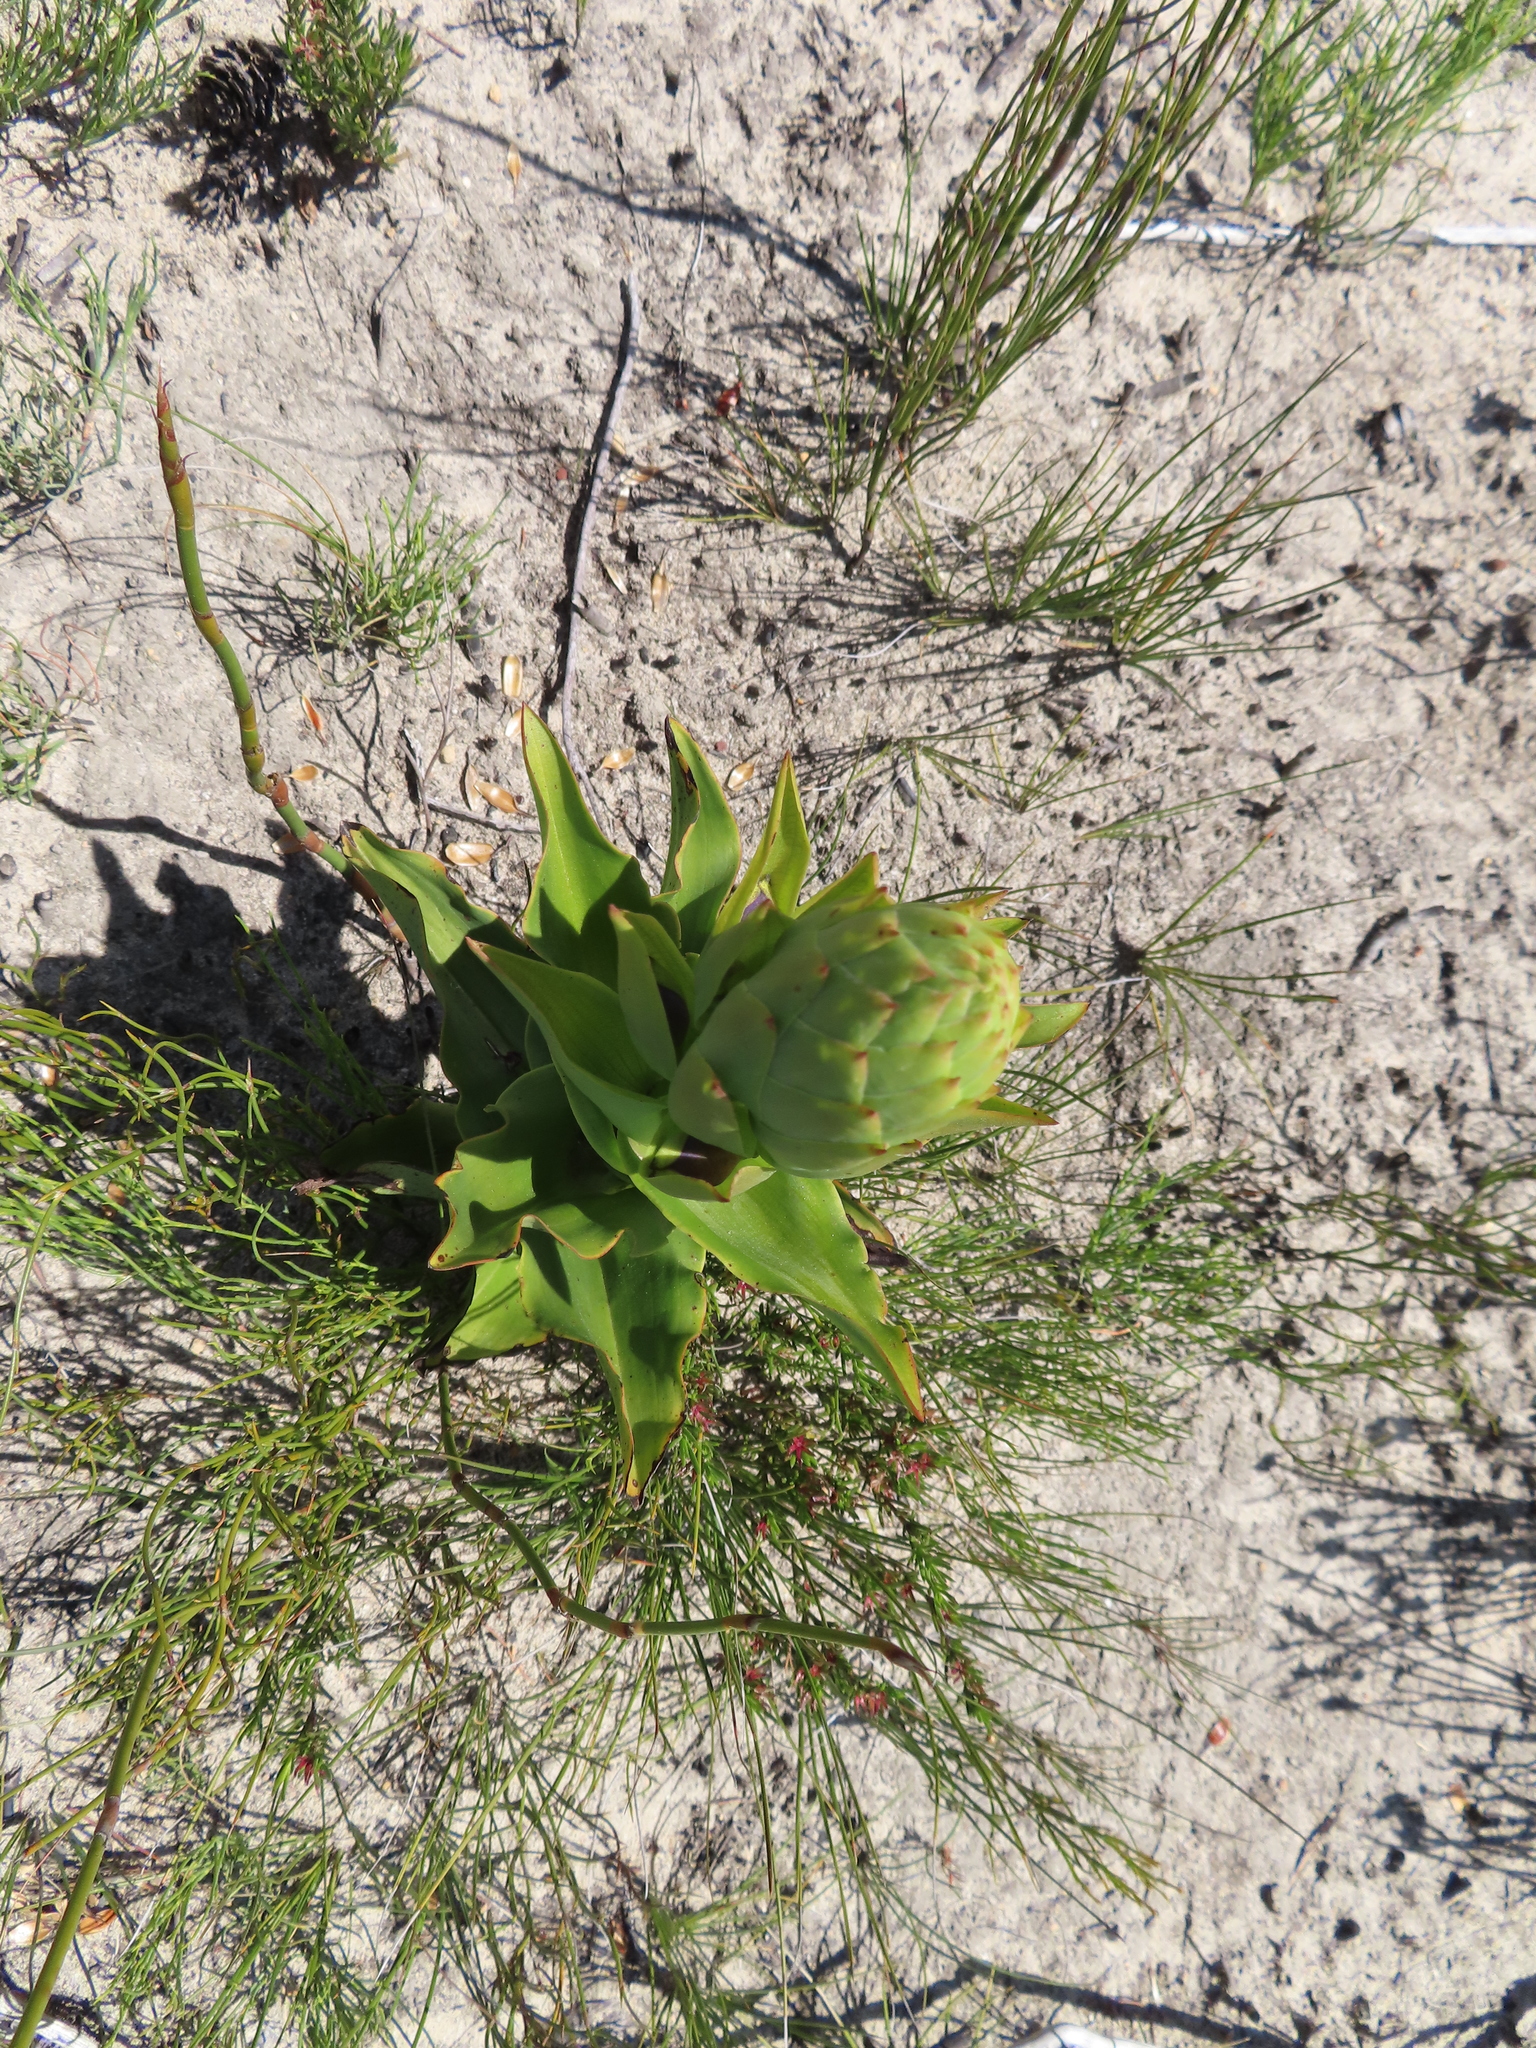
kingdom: Plantae
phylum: Tracheophyta
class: Liliopsida
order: Asparagales
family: Orchidaceae
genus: Disa
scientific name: Disa cornuta
